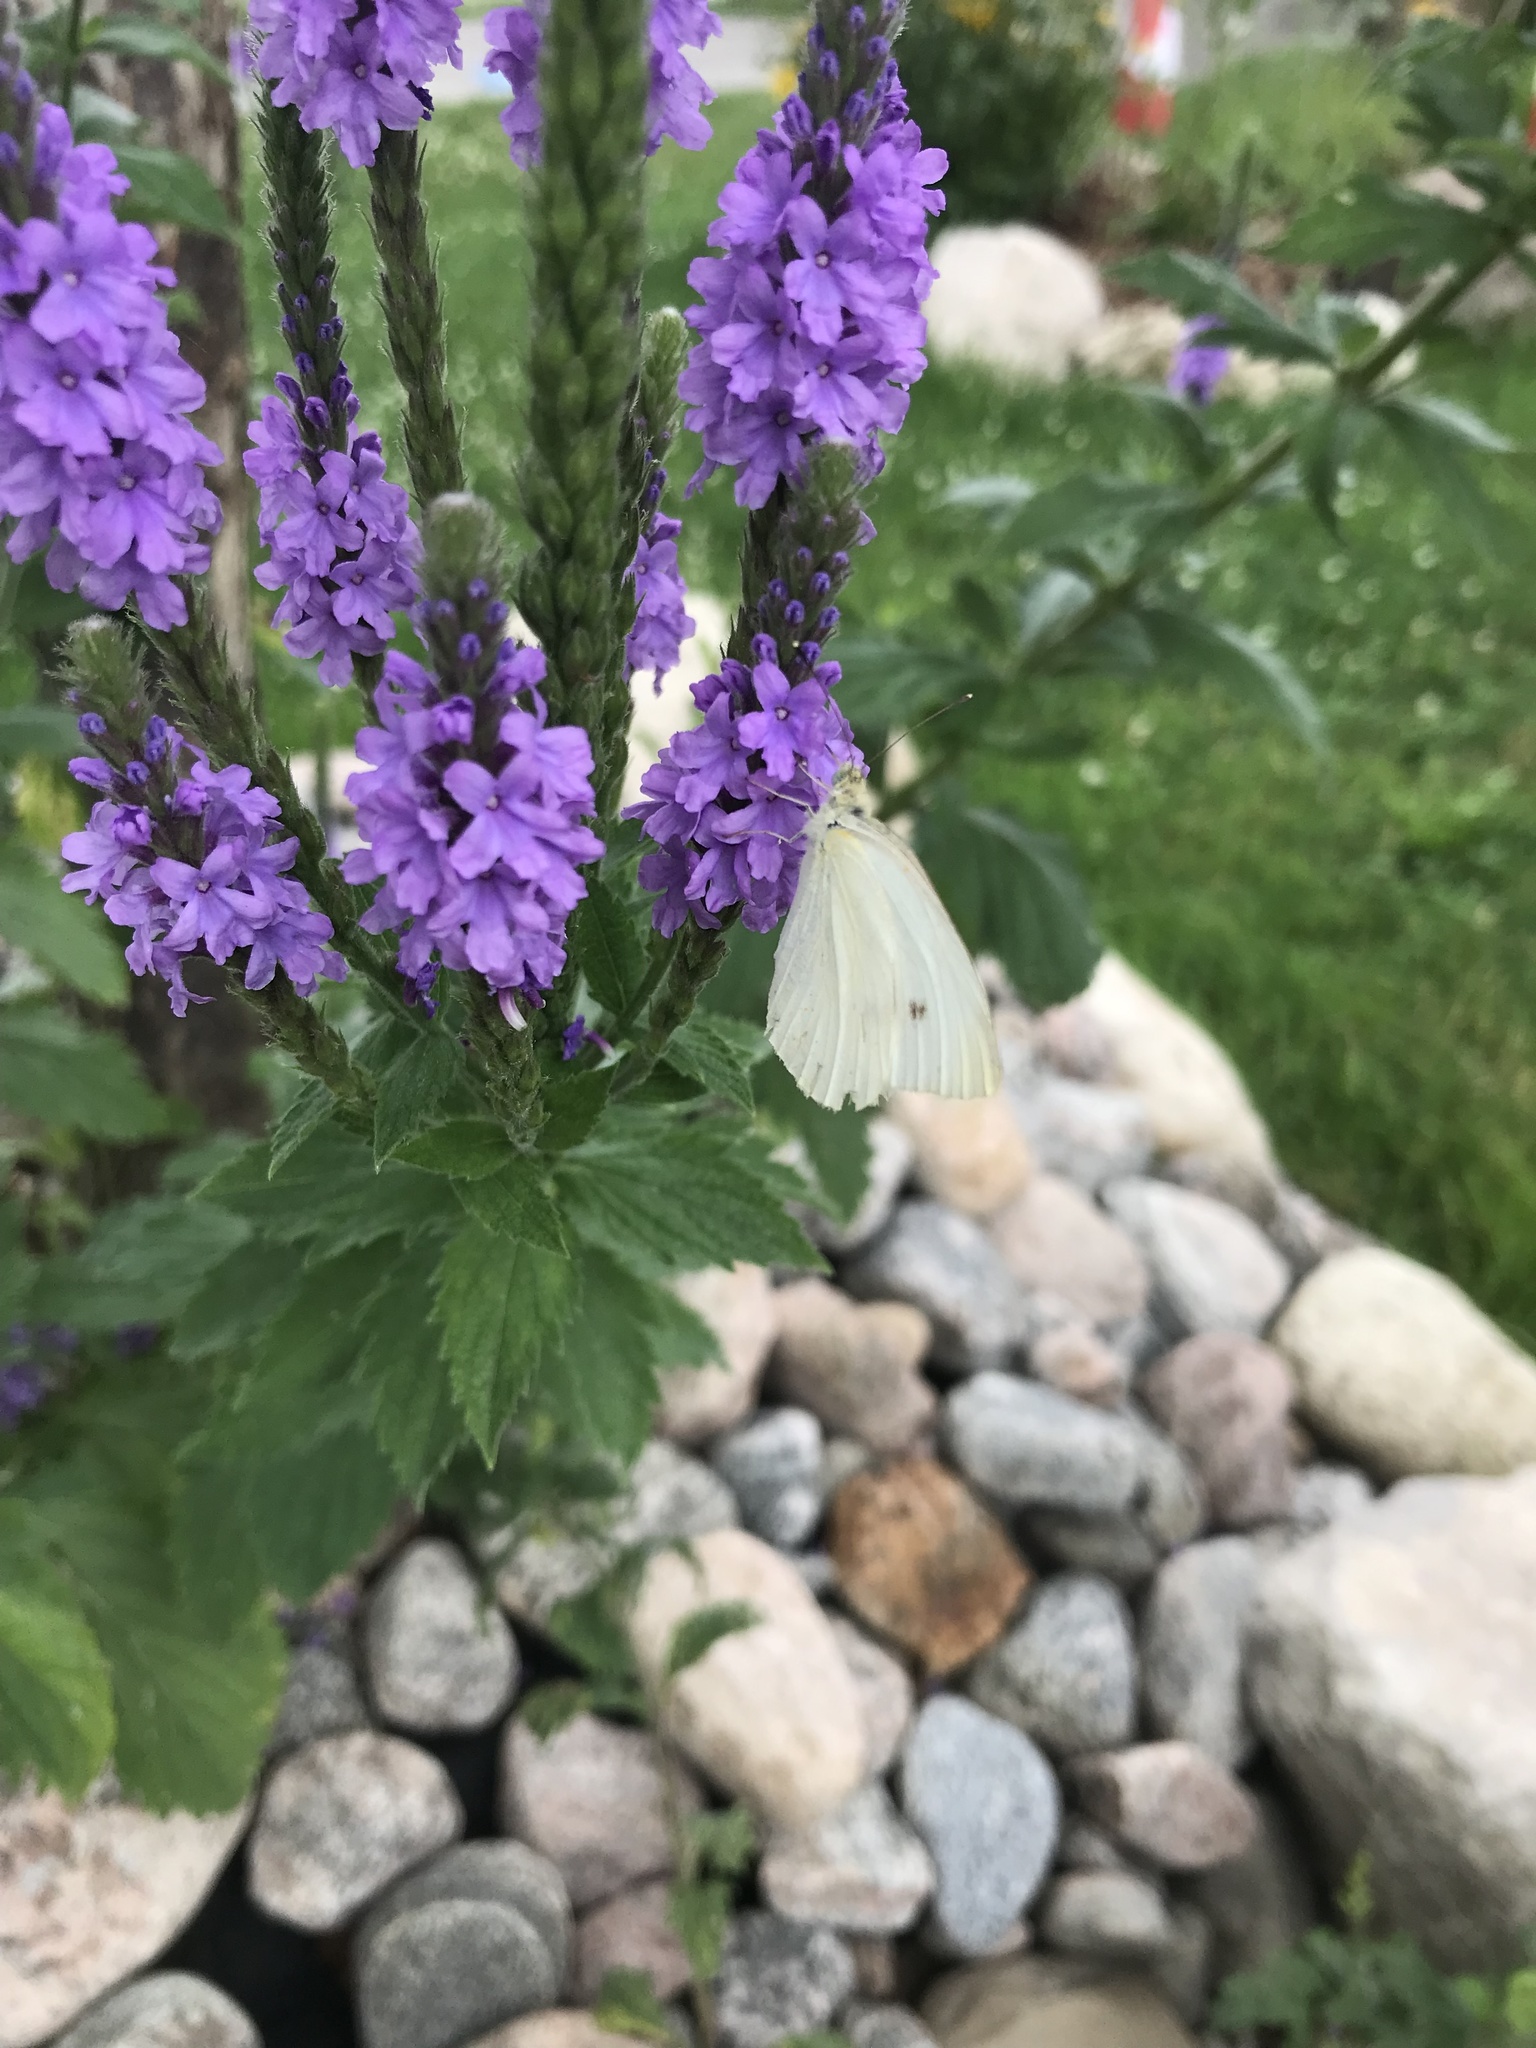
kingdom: Animalia
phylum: Arthropoda
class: Insecta
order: Lepidoptera
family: Pieridae
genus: Pieris
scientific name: Pieris rapae
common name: Small white
